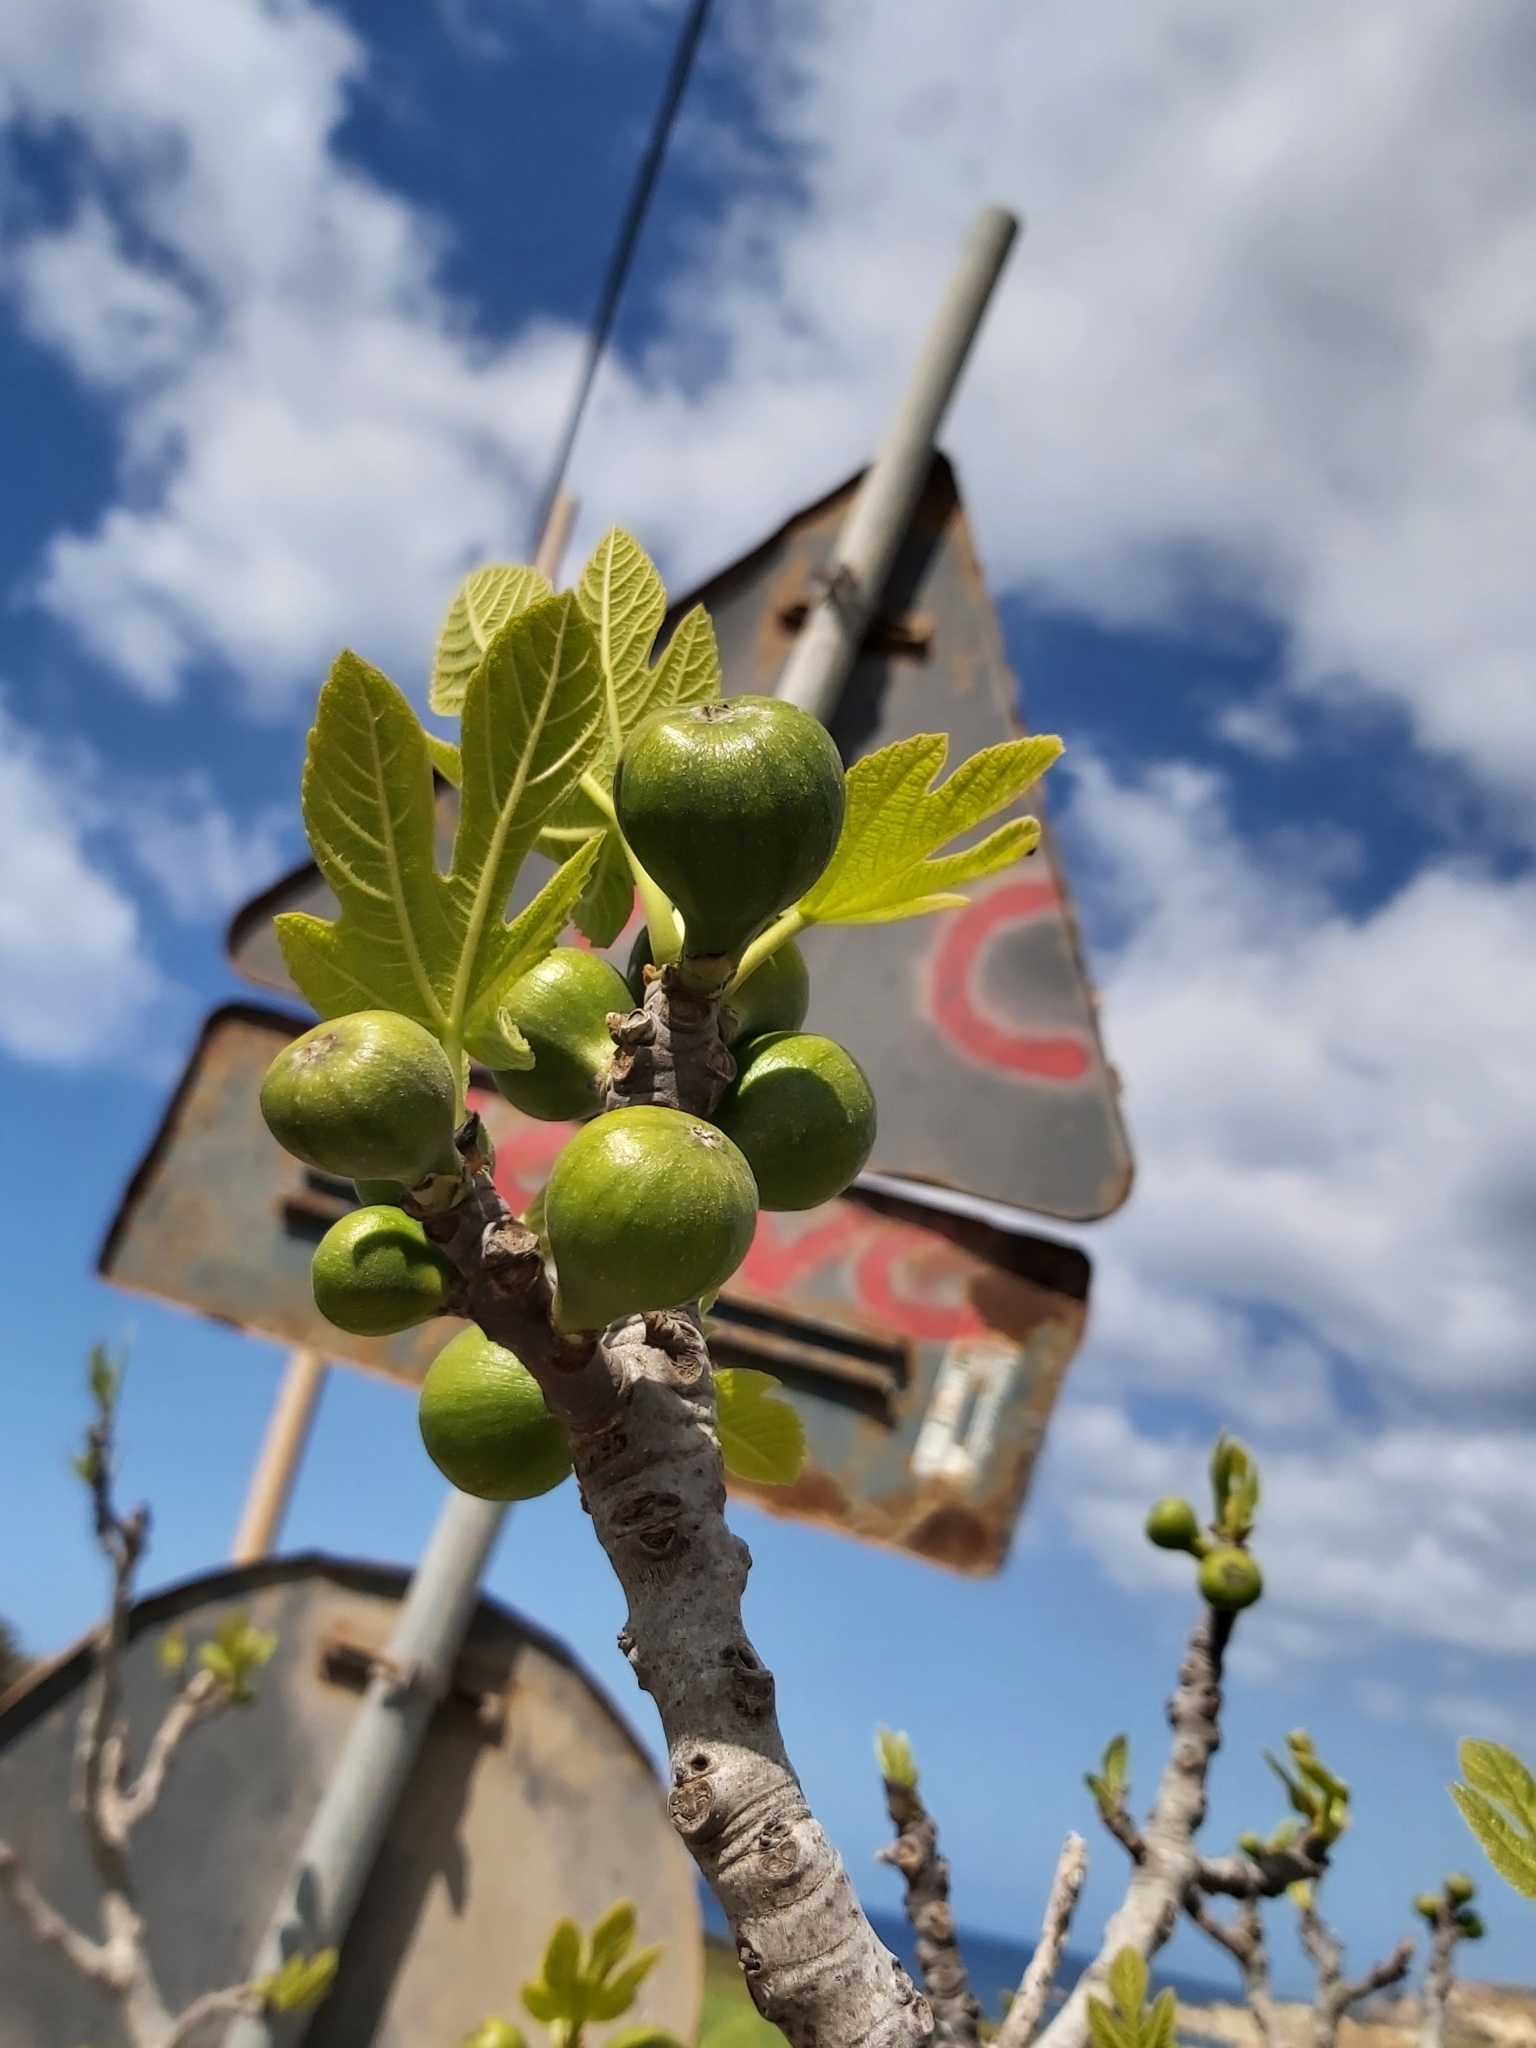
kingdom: Plantae
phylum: Tracheophyta
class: Magnoliopsida
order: Rosales
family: Moraceae
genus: Ficus
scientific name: Ficus carica
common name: Fig
